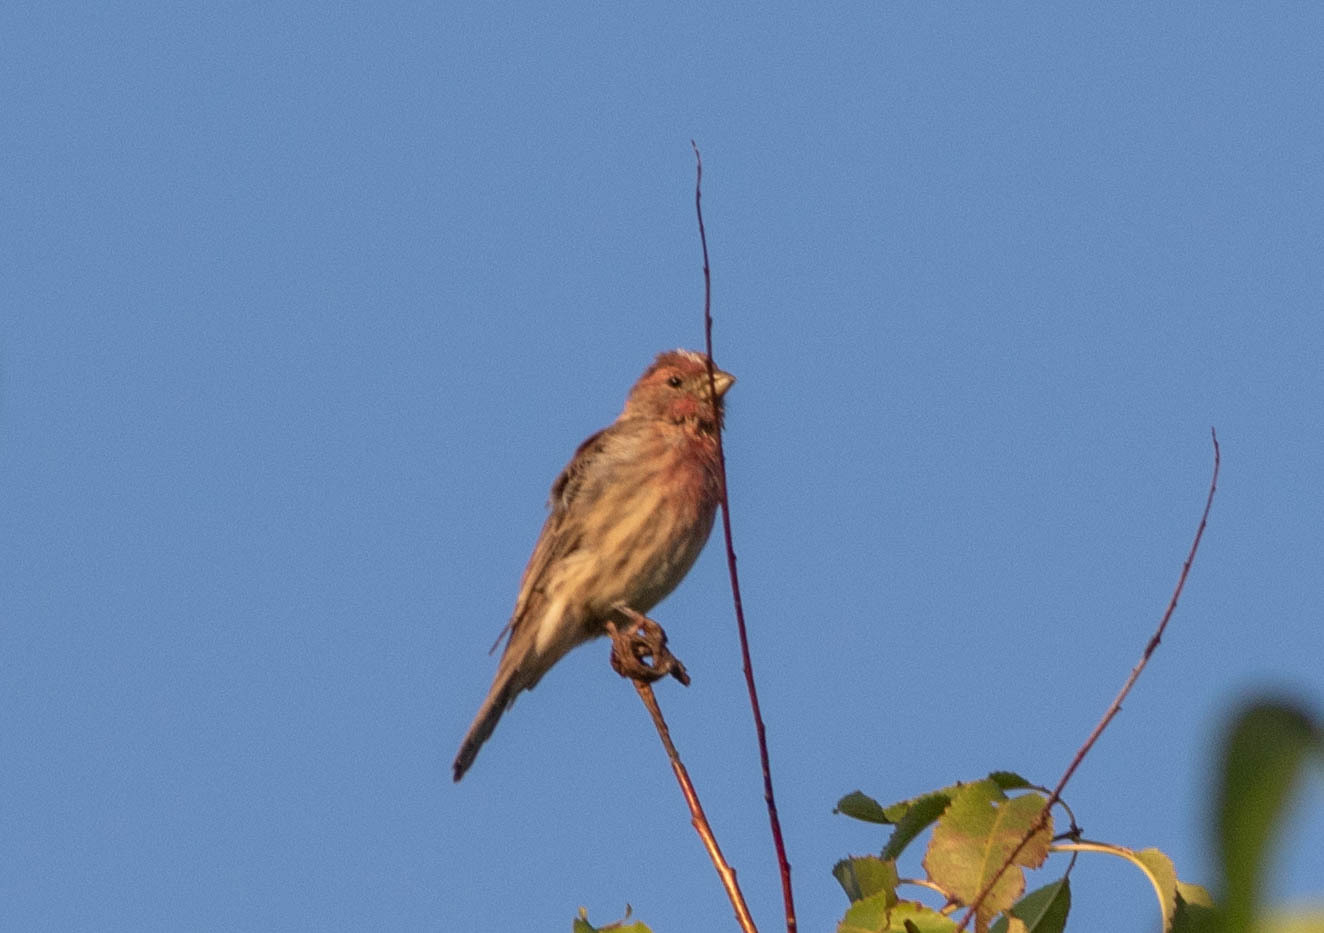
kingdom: Animalia
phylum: Chordata
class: Aves
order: Passeriformes
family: Fringillidae
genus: Haemorhous
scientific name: Haemorhous mexicanus
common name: House finch
